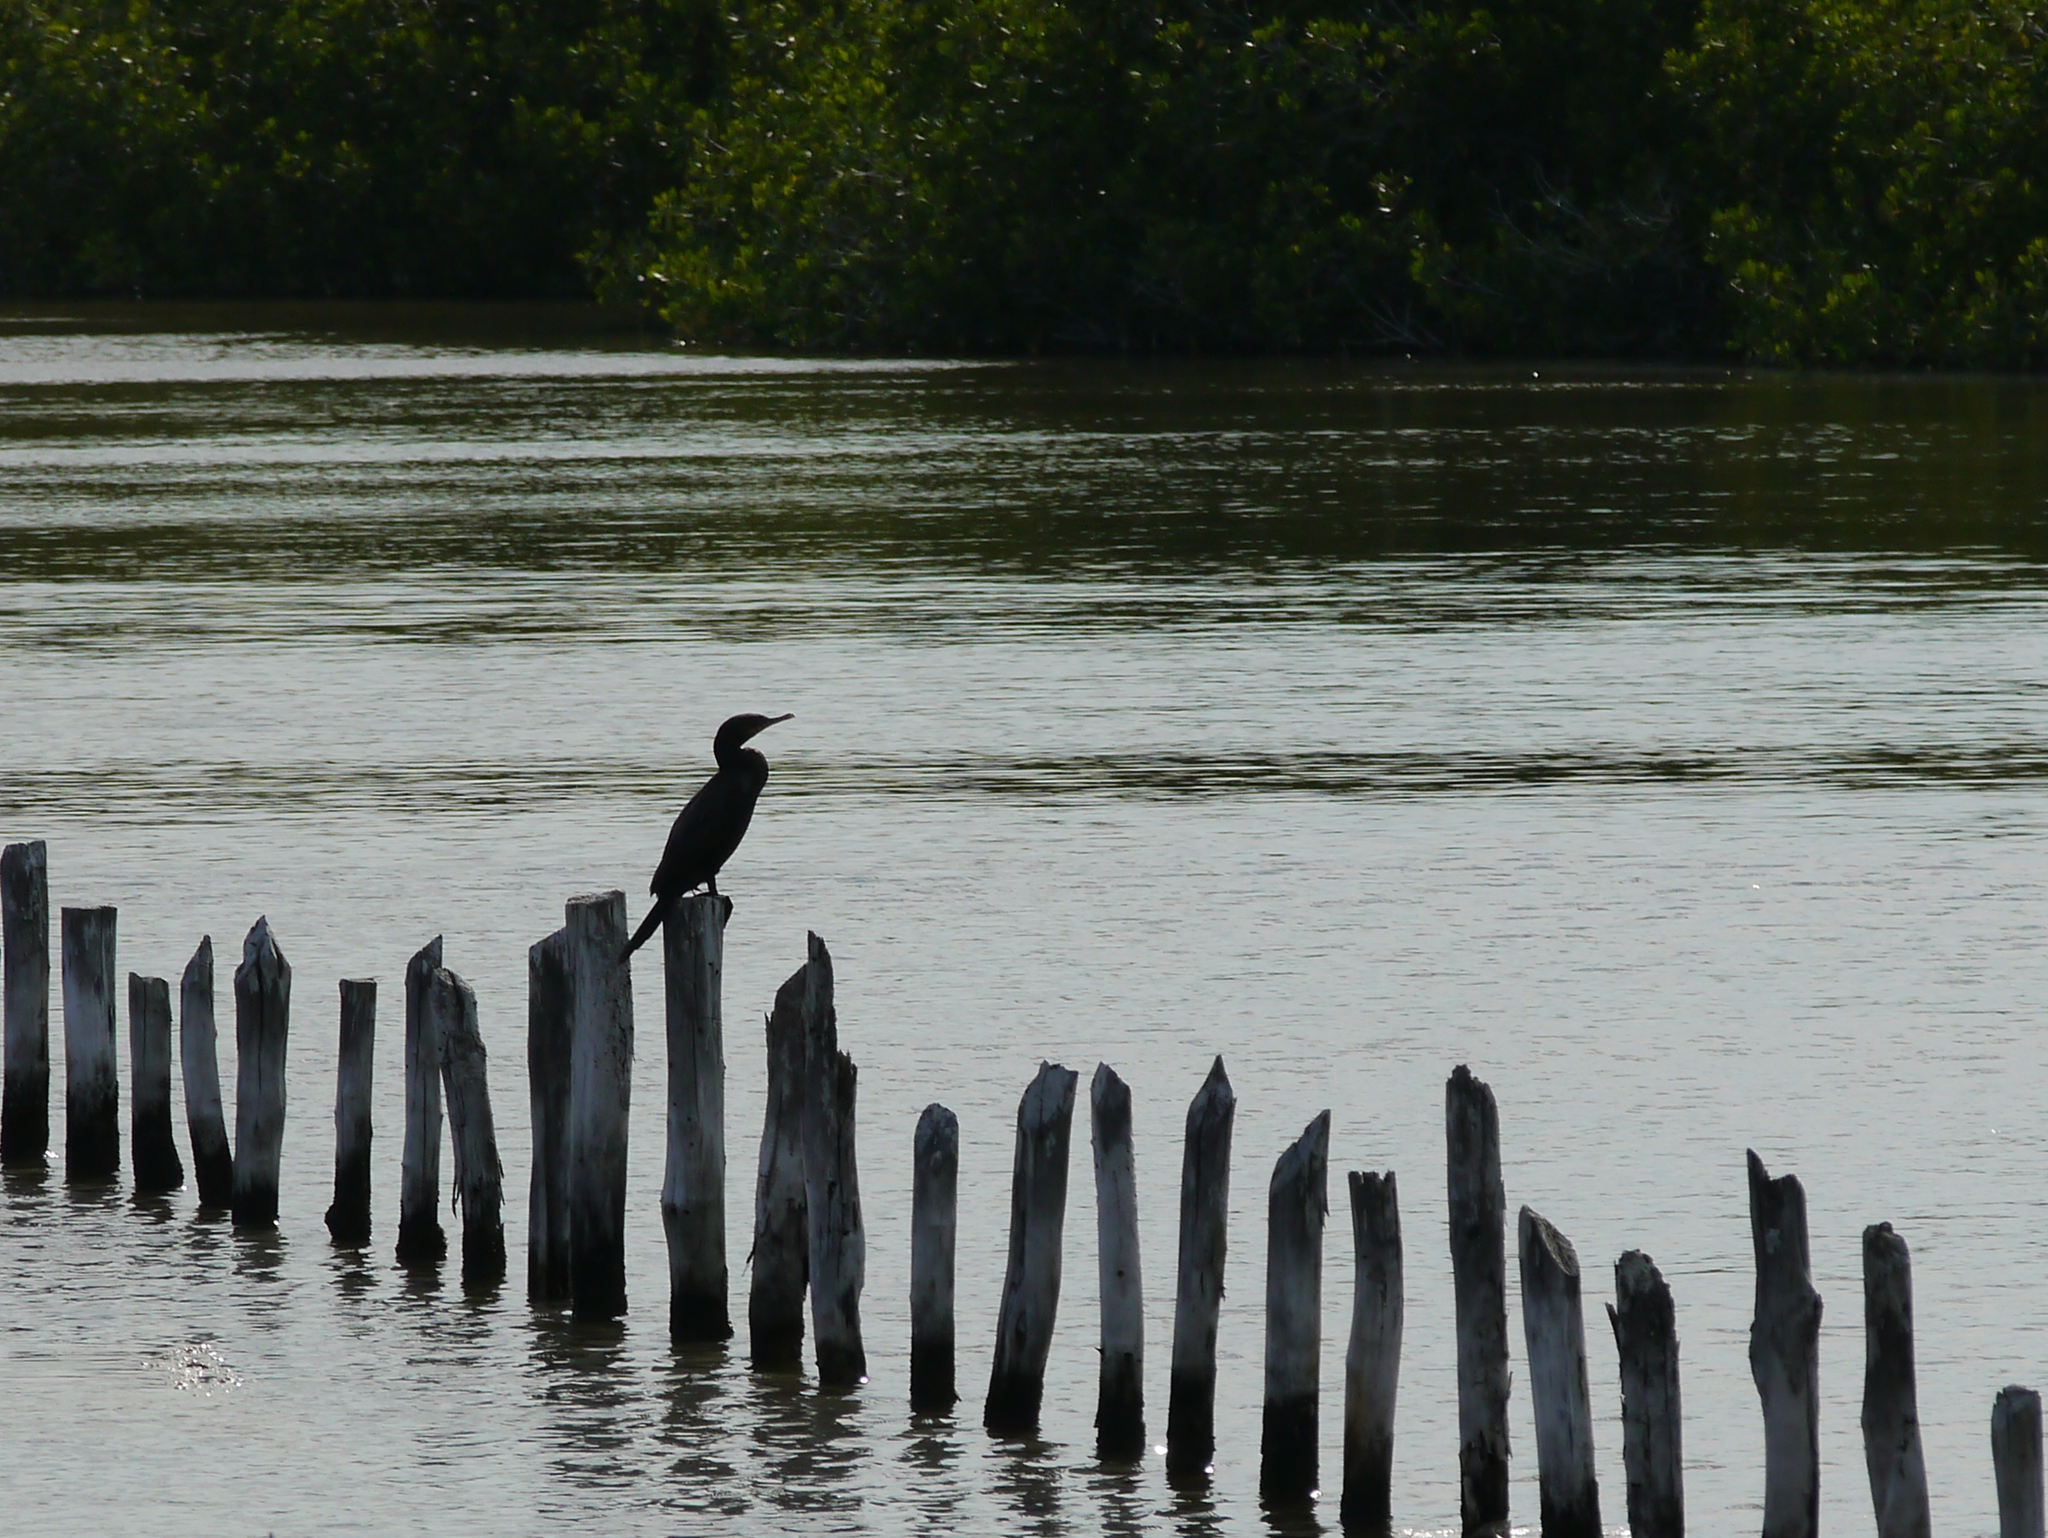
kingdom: Animalia
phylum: Chordata
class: Aves
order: Suliformes
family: Phalacrocoracidae
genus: Phalacrocorax
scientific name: Phalacrocorax brasilianus
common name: Neotropic cormorant
